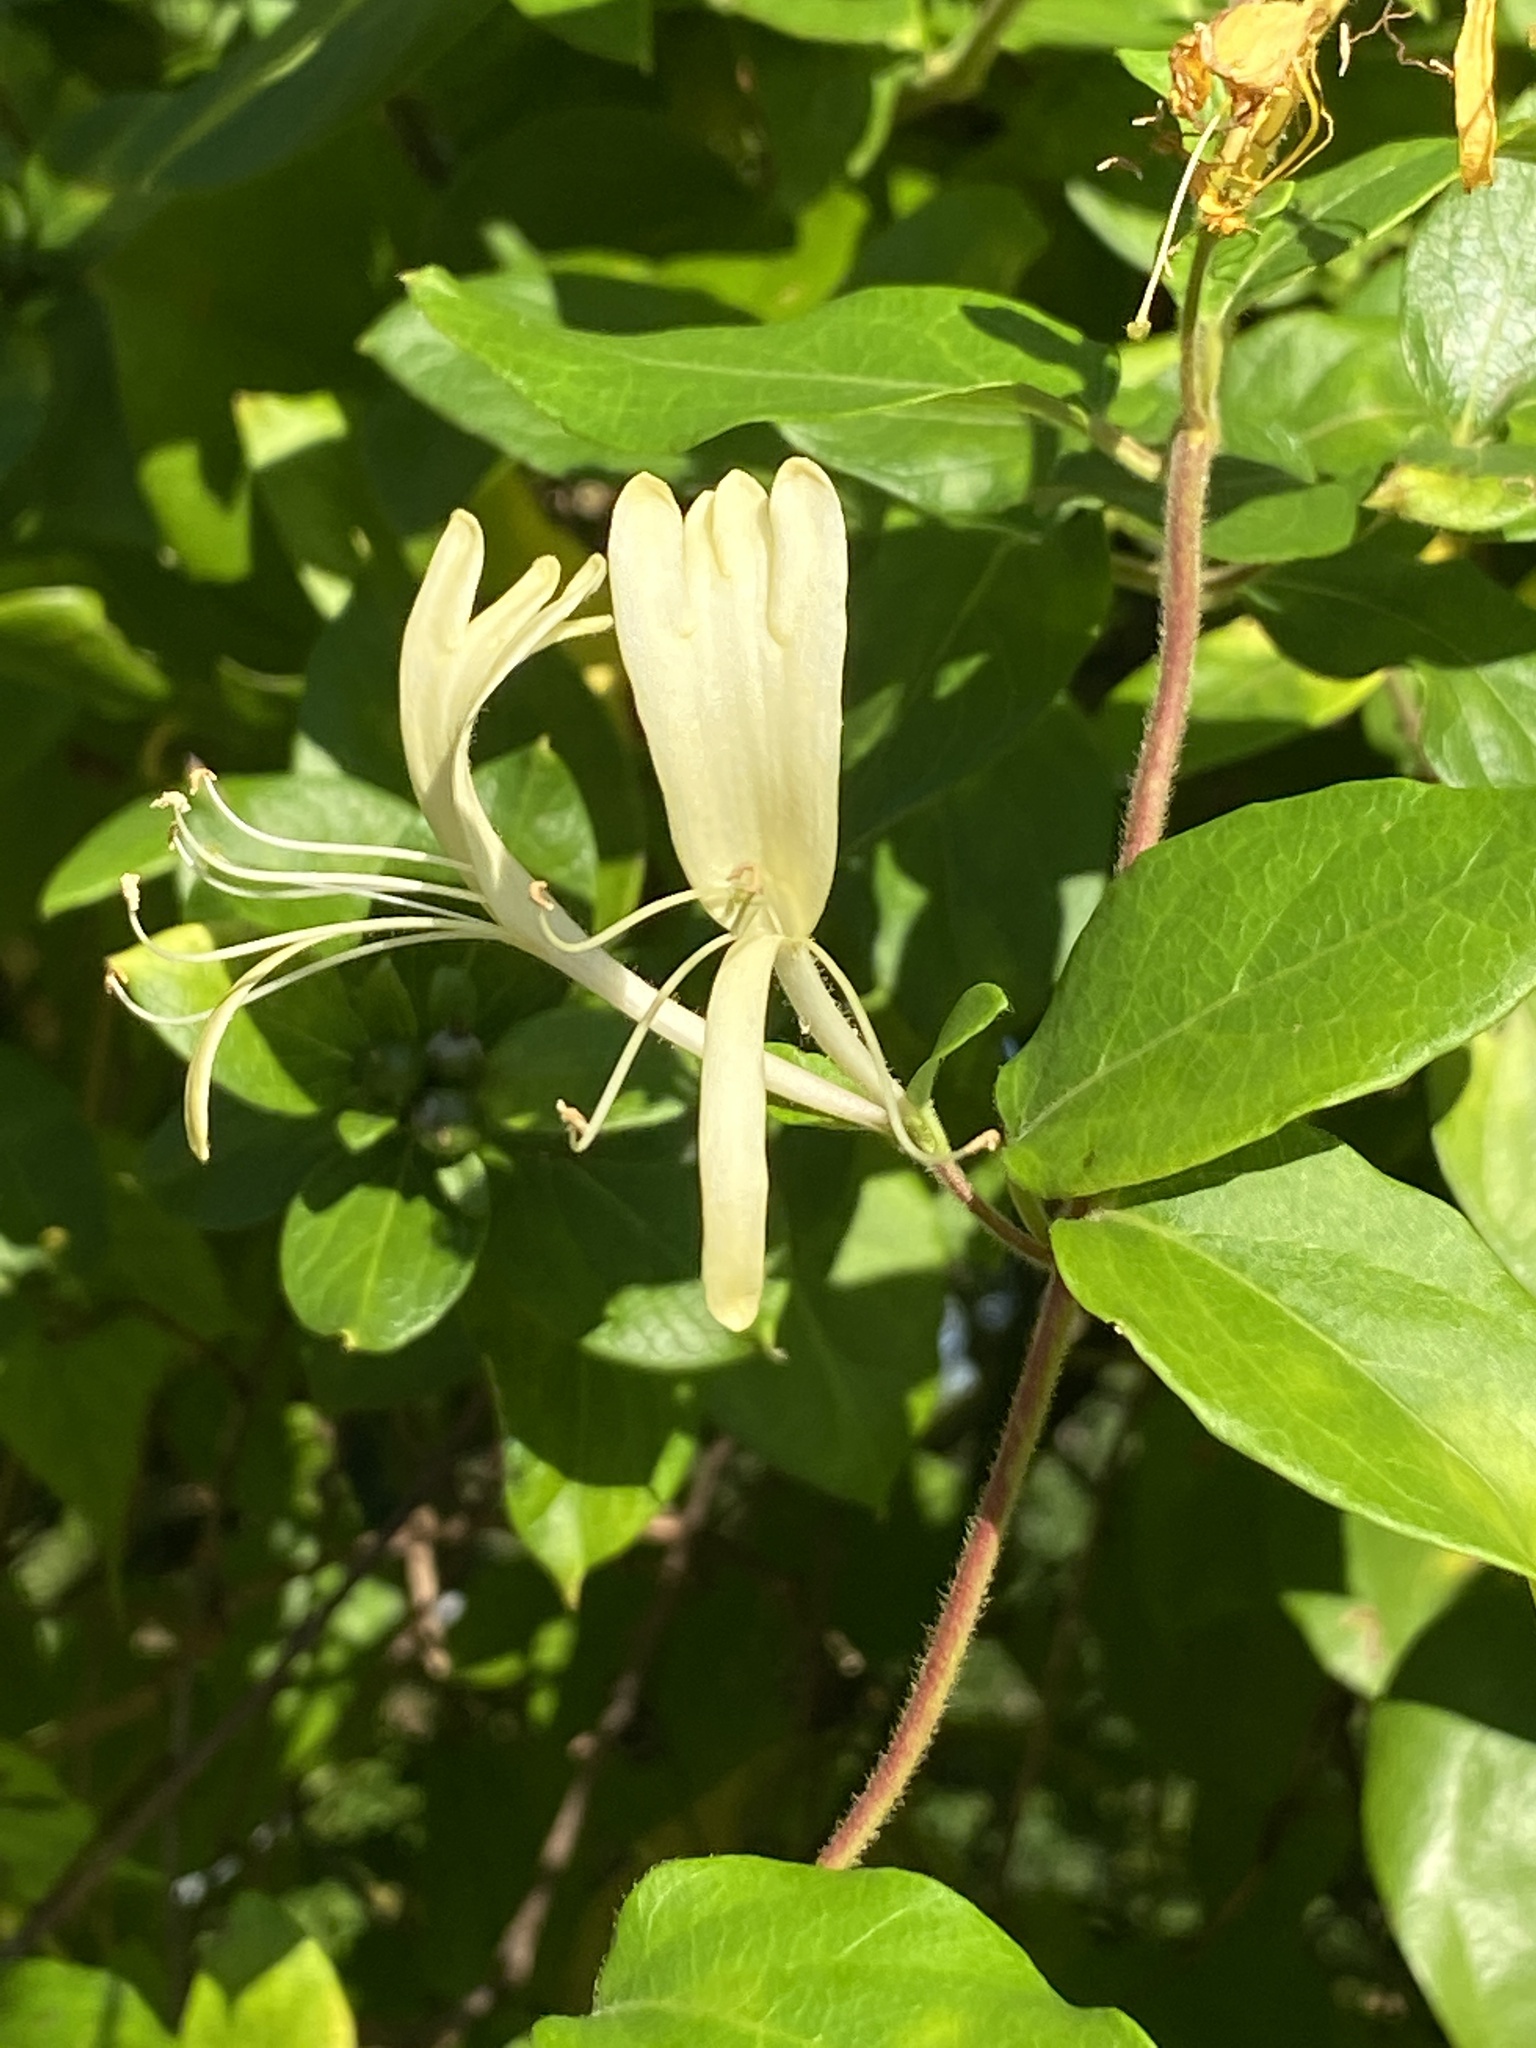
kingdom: Plantae
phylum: Tracheophyta
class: Magnoliopsida
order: Dipsacales
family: Caprifoliaceae
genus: Lonicera
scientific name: Lonicera japonica
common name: Japanese honeysuckle
